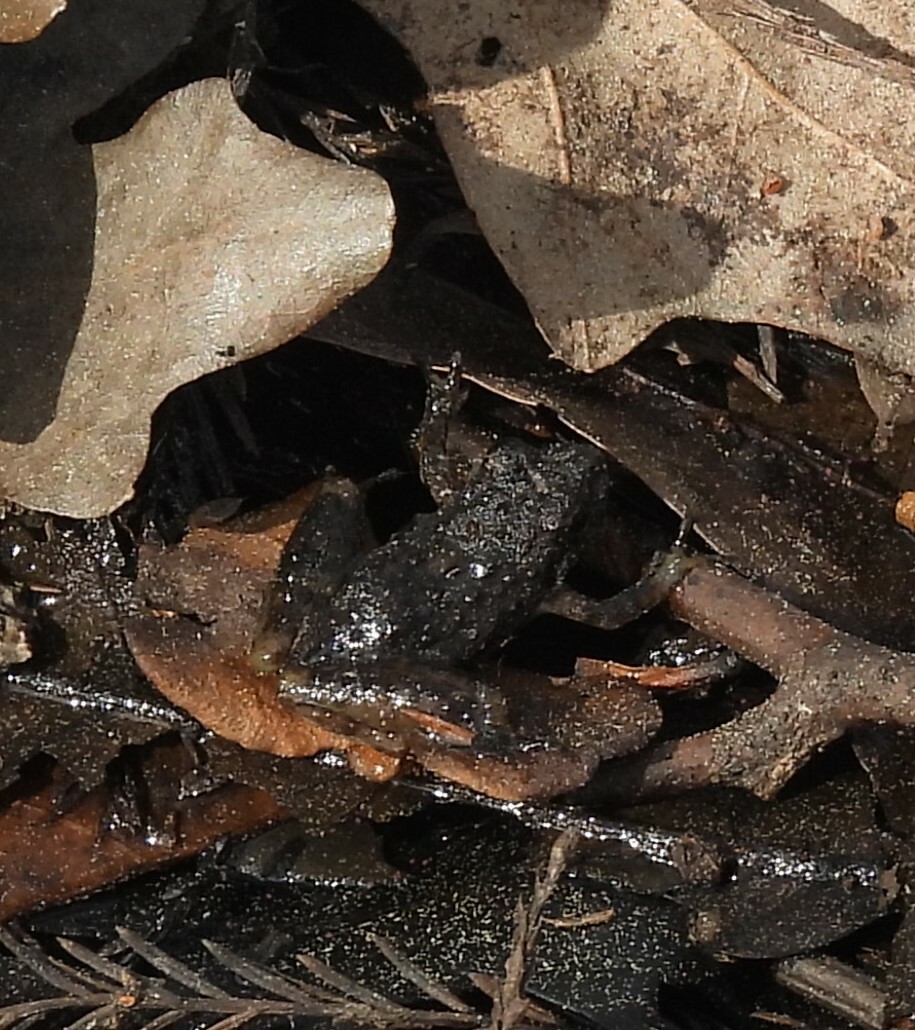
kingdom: Animalia
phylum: Chordata
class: Amphibia
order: Anura
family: Hylidae
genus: Acris
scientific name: Acris blanchardi
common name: Blanchard's cricket frog
